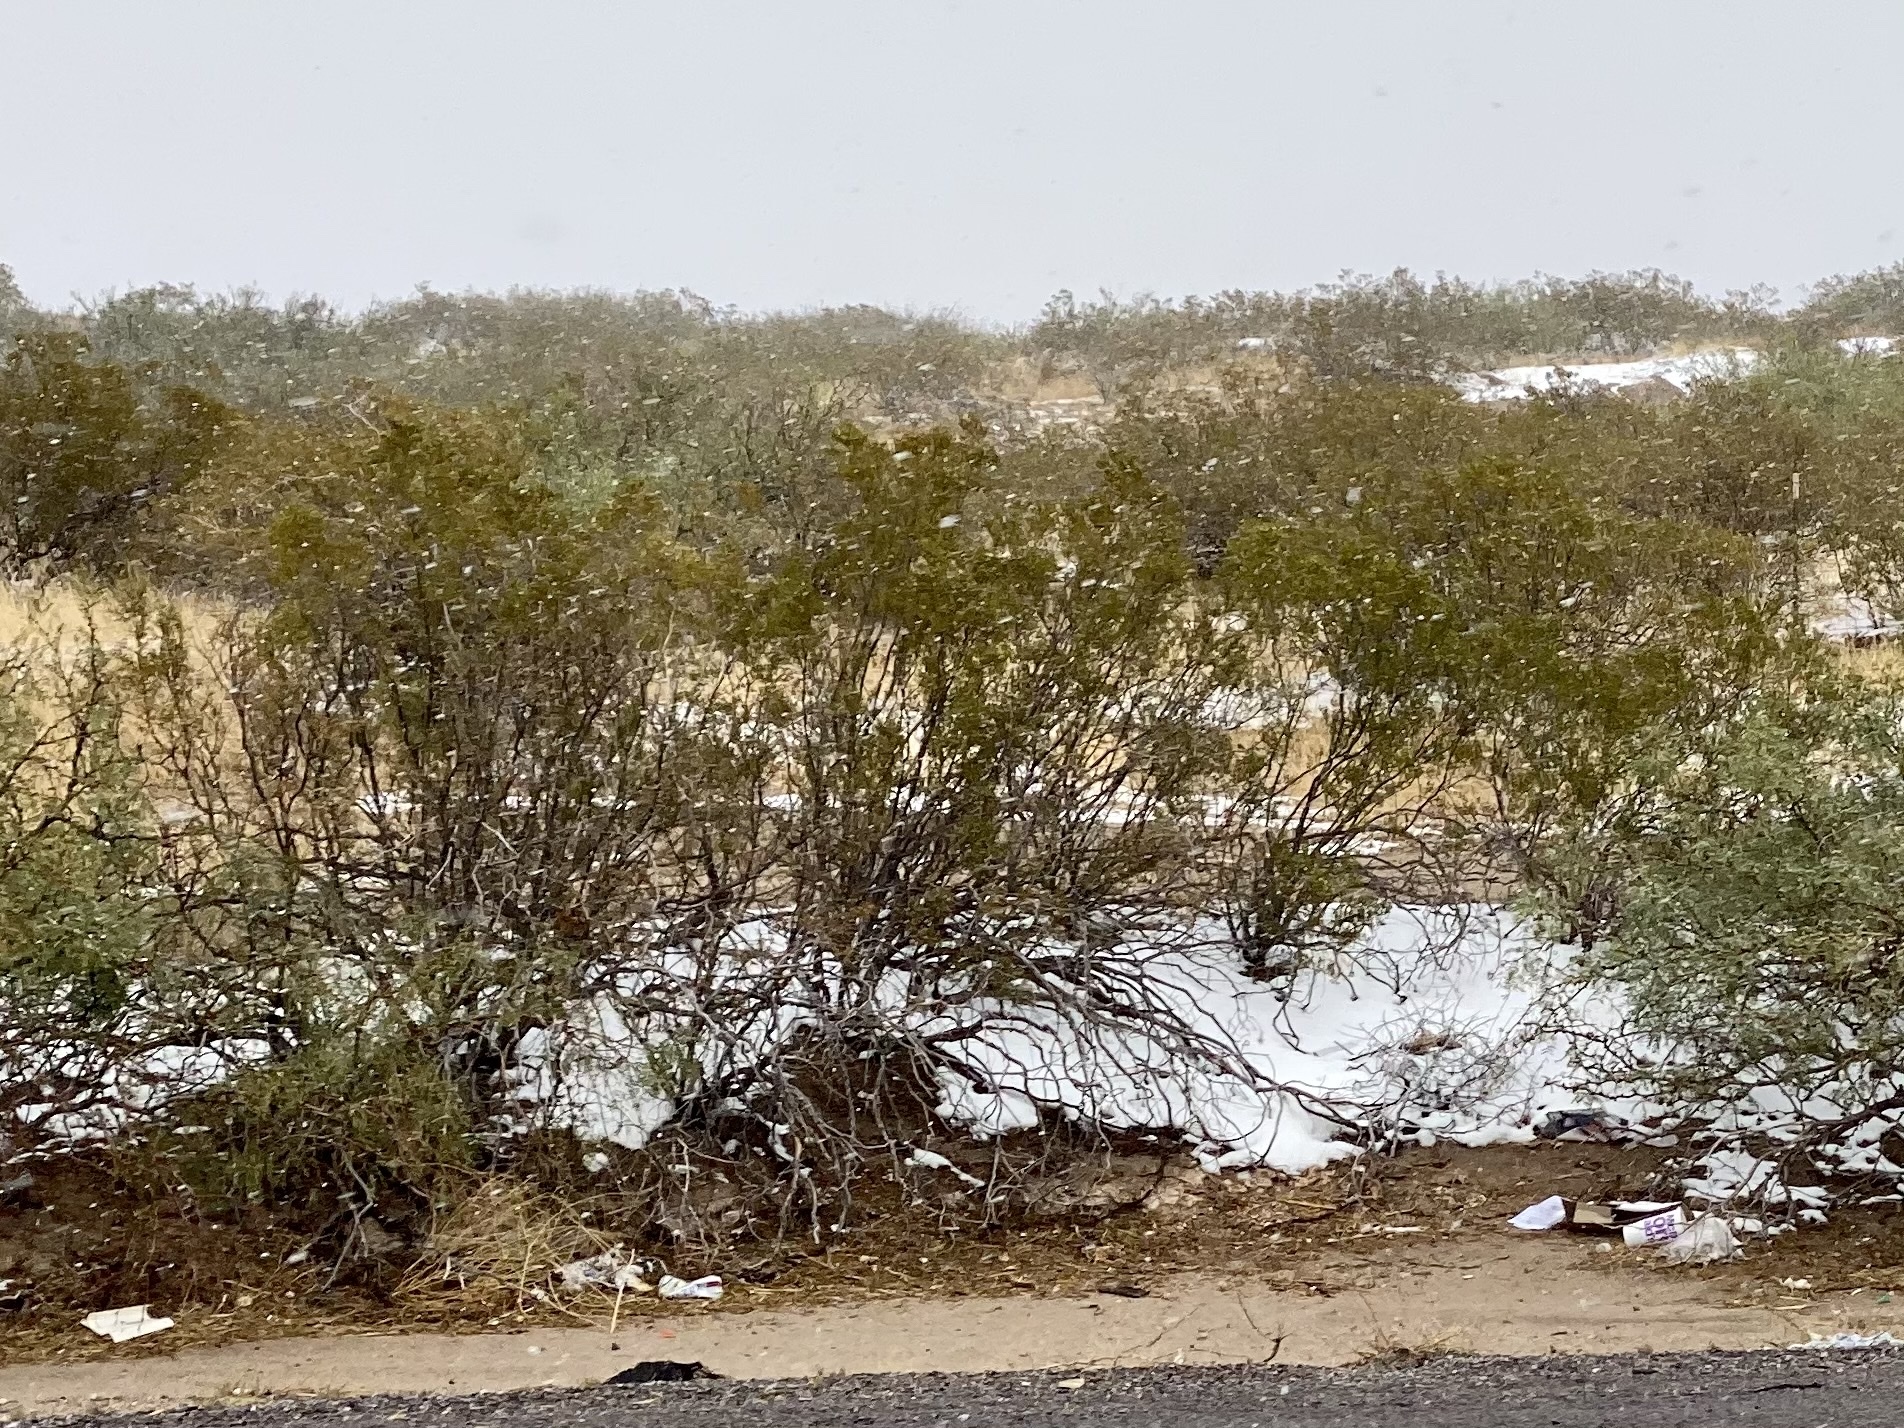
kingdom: Plantae
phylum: Tracheophyta
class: Magnoliopsida
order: Zygophyllales
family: Zygophyllaceae
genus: Larrea
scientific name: Larrea tridentata
